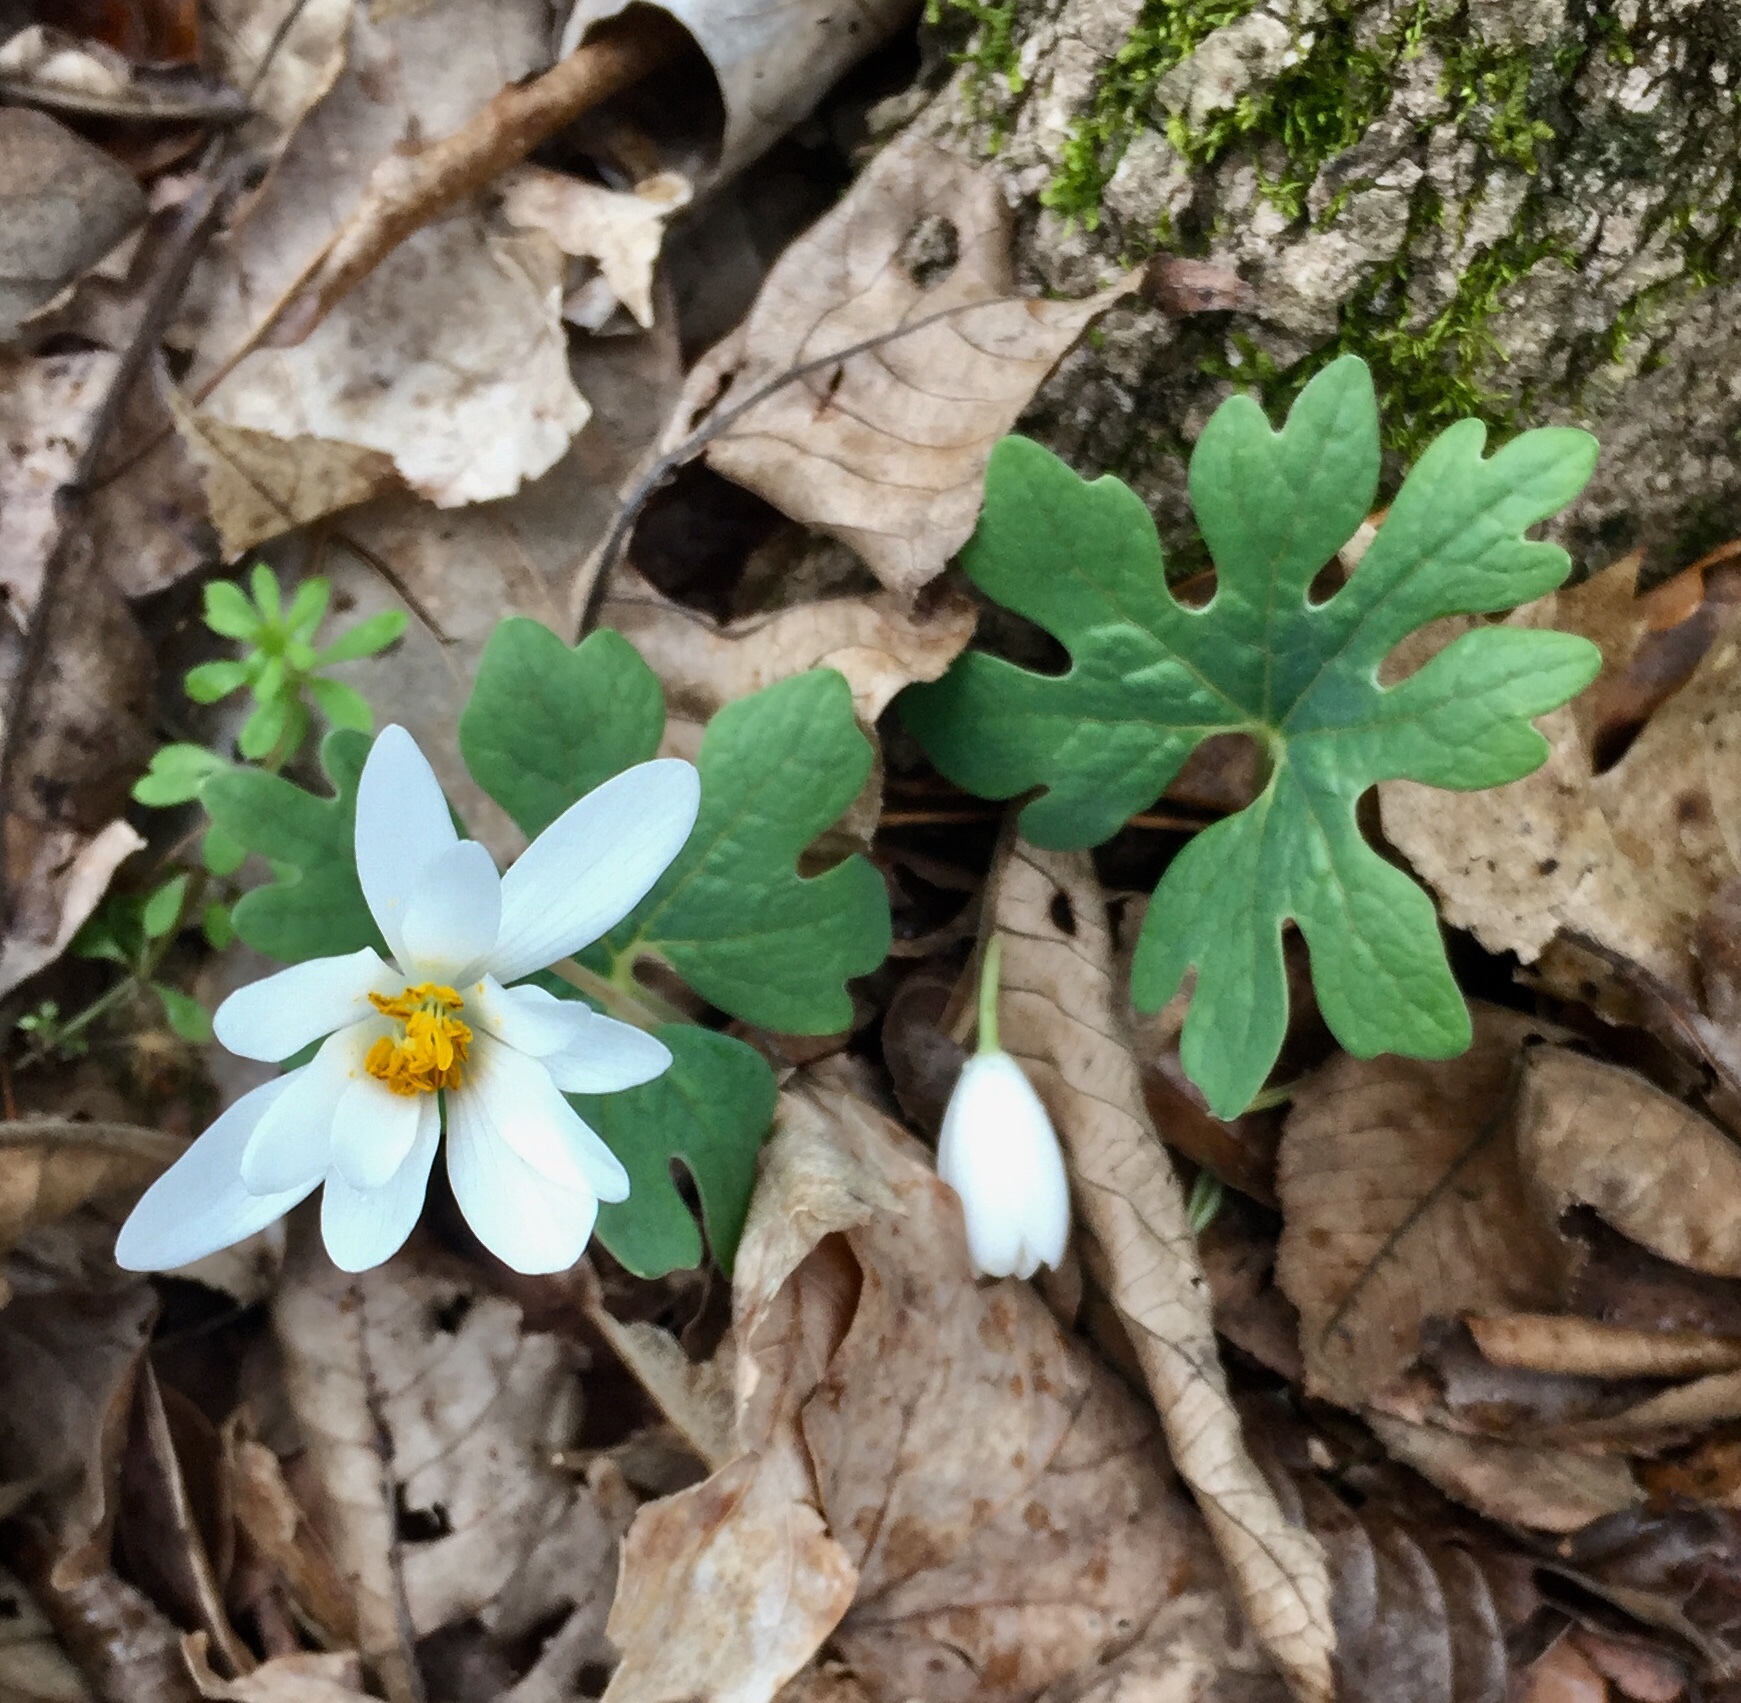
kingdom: Plantae
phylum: Tracheophyta
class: Magnoliopsida
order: Ranunculales
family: Papaveraceae
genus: Sanguinaria
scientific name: Sanguinaria canadensis
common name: Bloodroot
